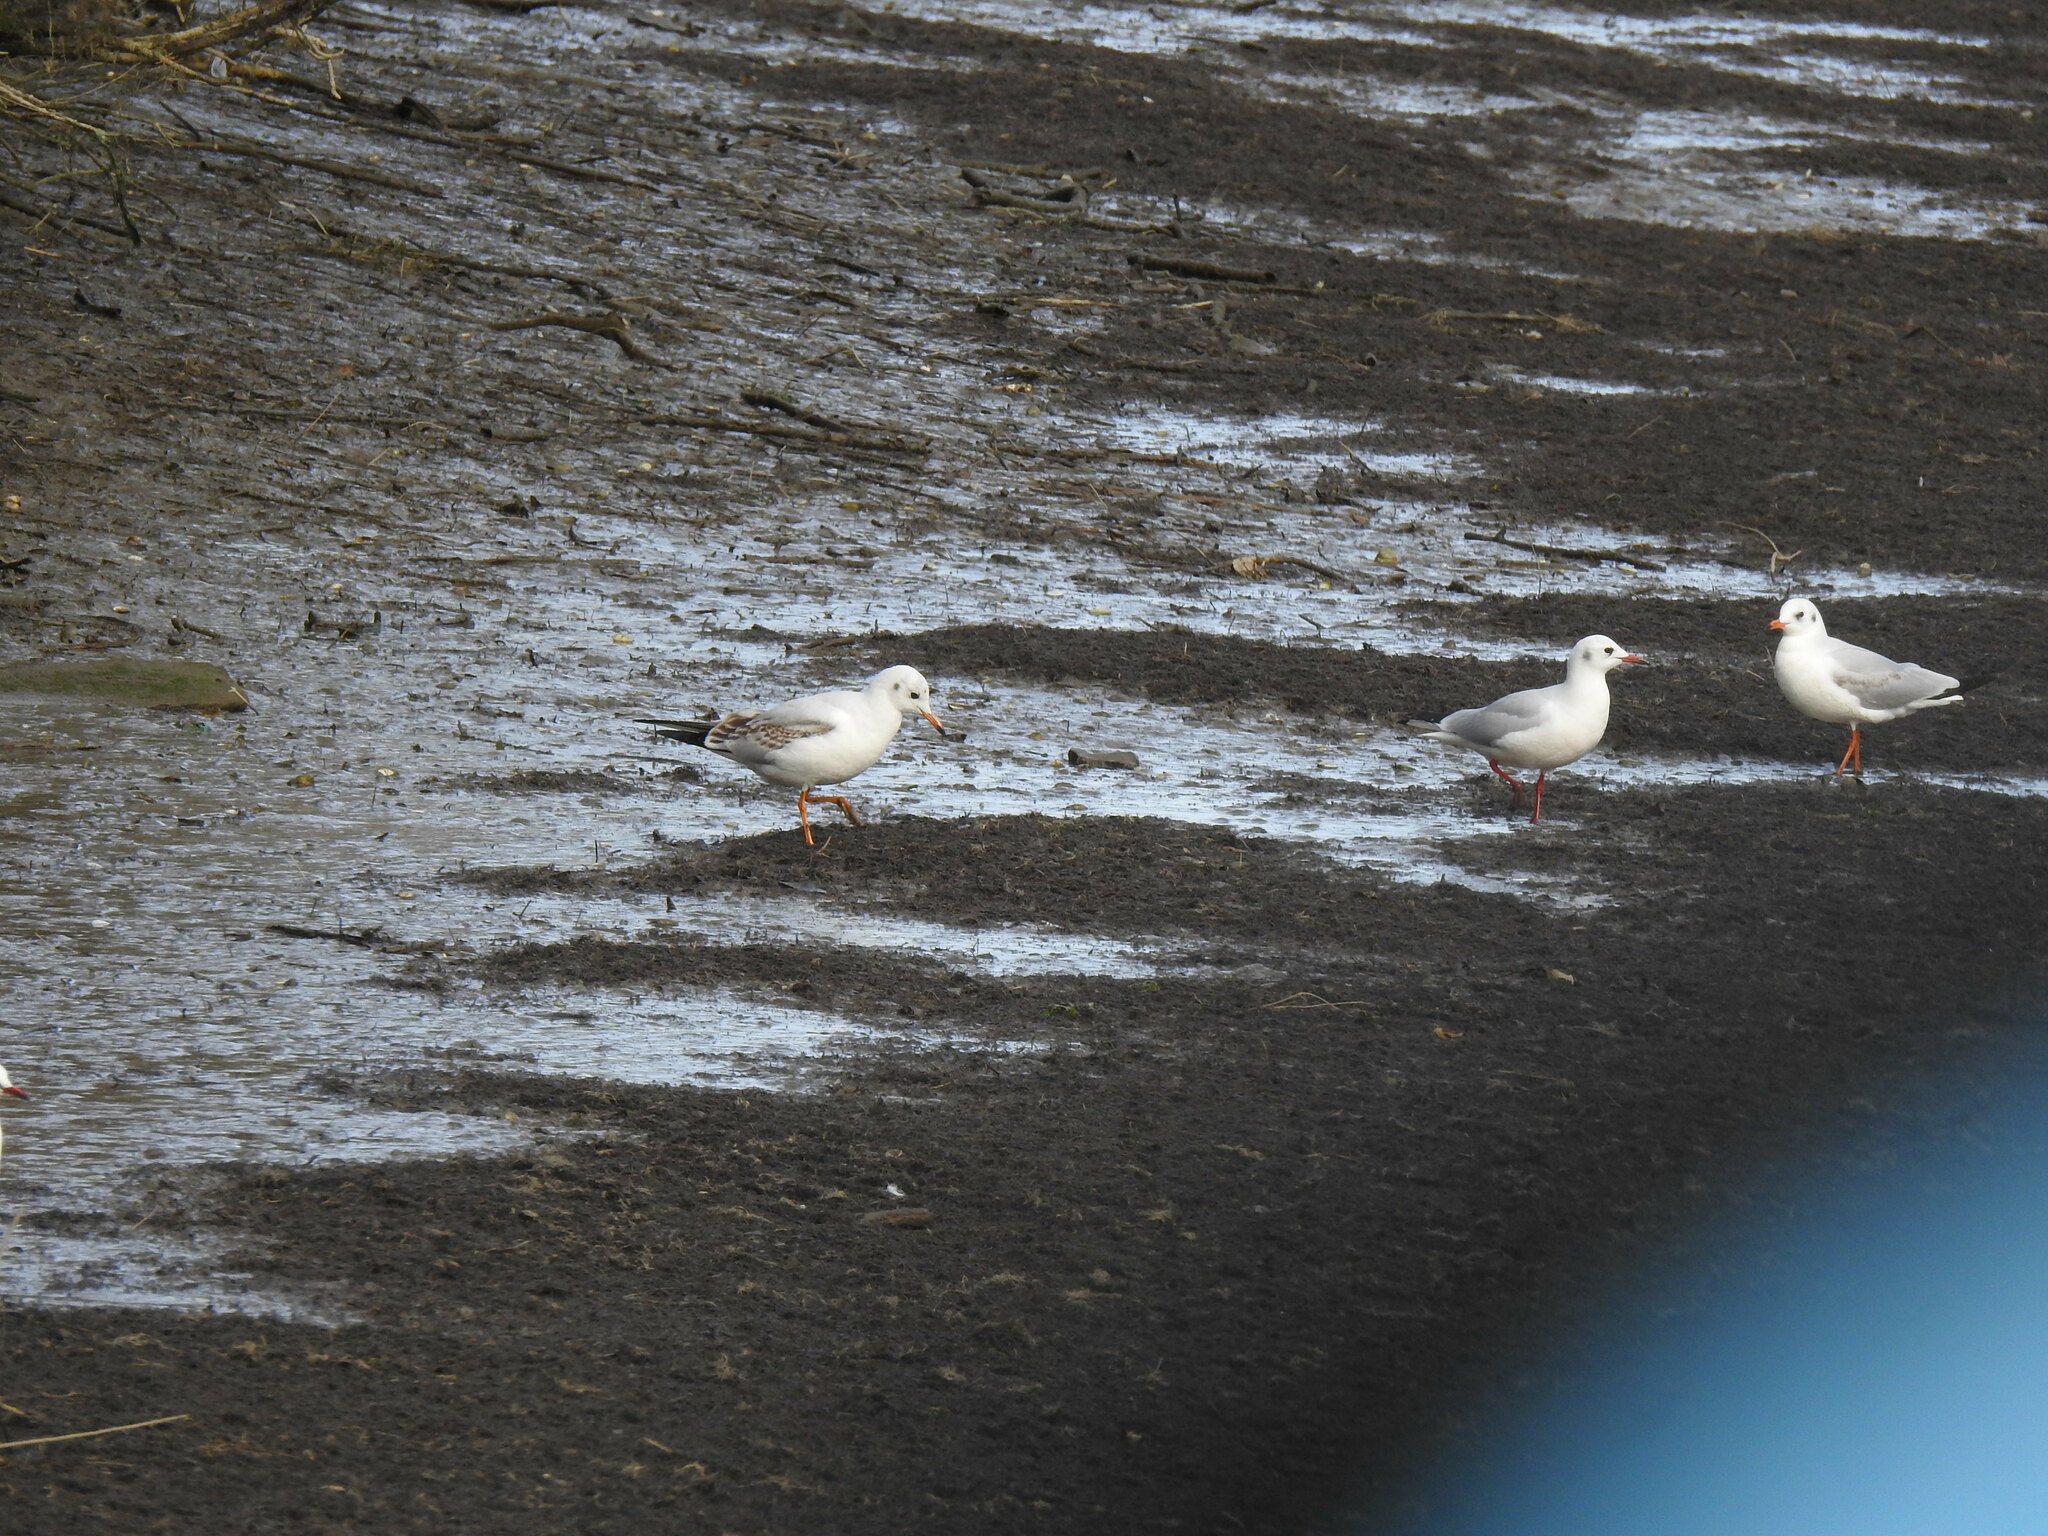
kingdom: Animalia
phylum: Chordata
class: Aves
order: Charadriiformes
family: Laridae
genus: Chroicocephalus
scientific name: Chroicocephalus ridibundus
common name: Black-headed gull
